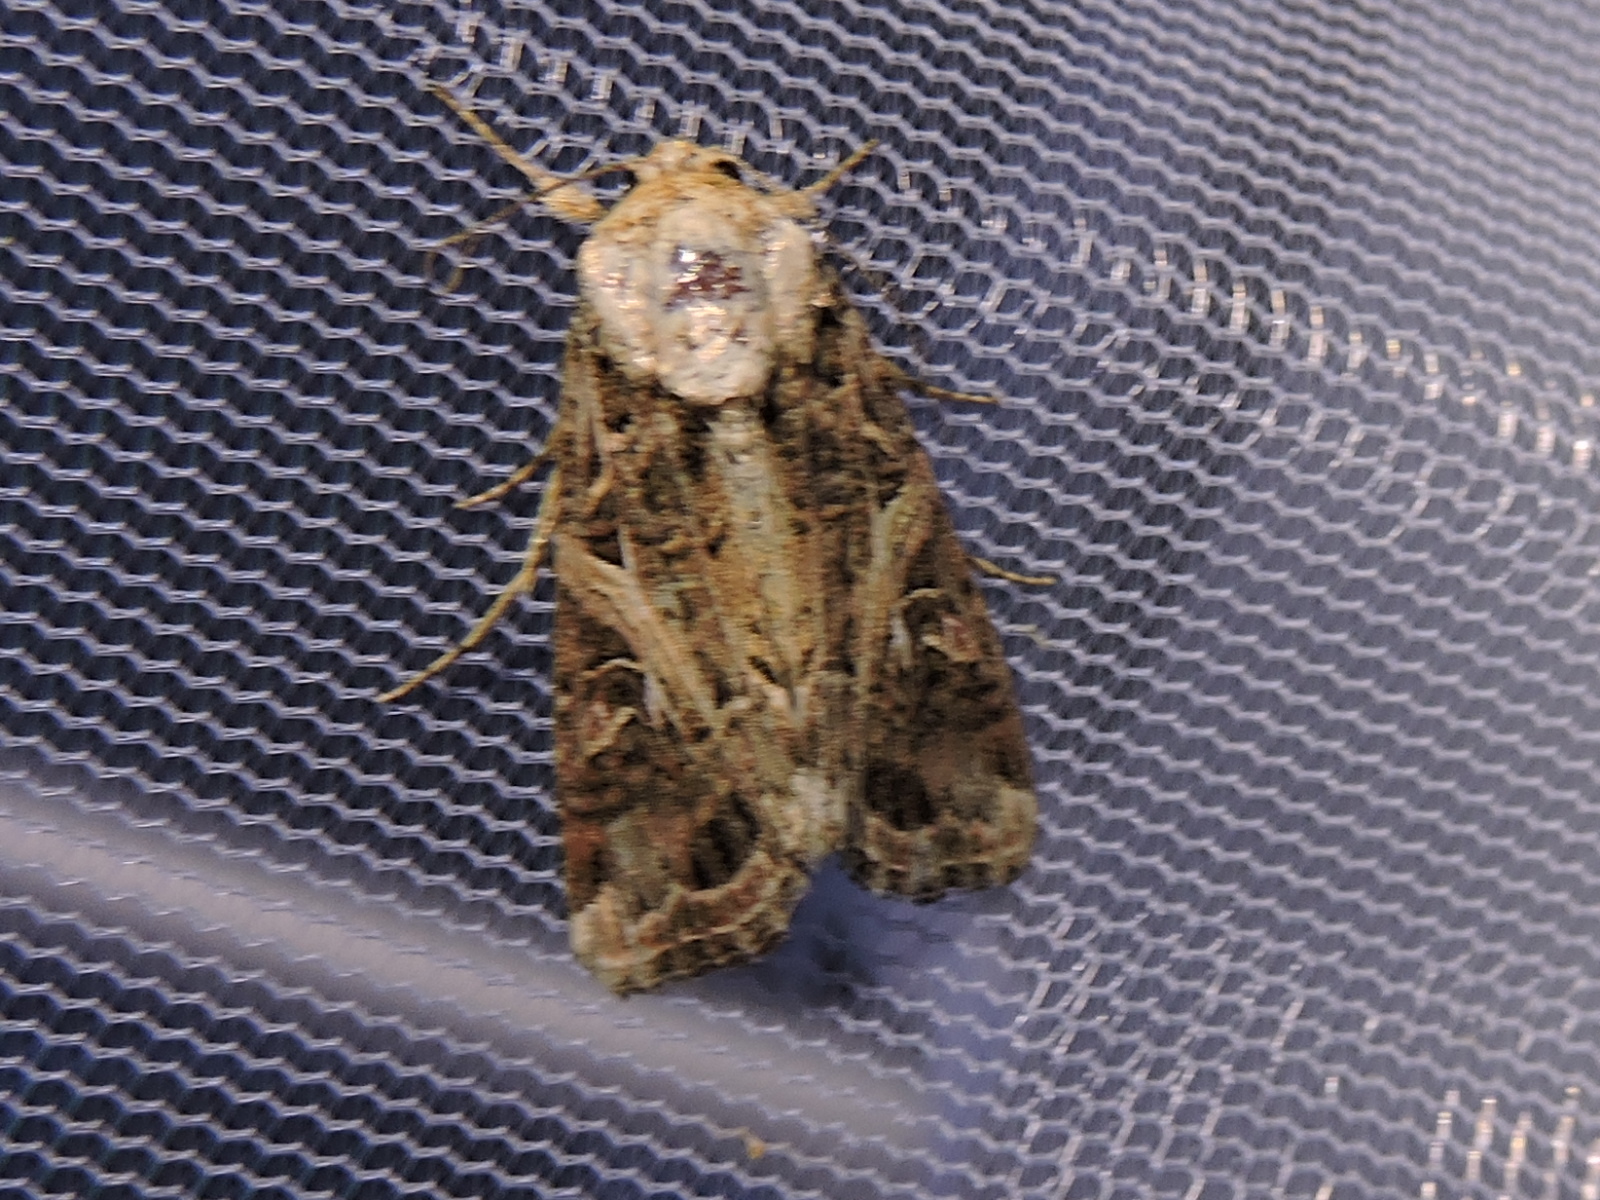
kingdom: Animalia
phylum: Arthropoda
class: Insecta
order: Lepidoptera
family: Noctuidae
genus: Spodoptera
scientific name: Spodoptera ornithogalli
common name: Yellow-striped armyworm
